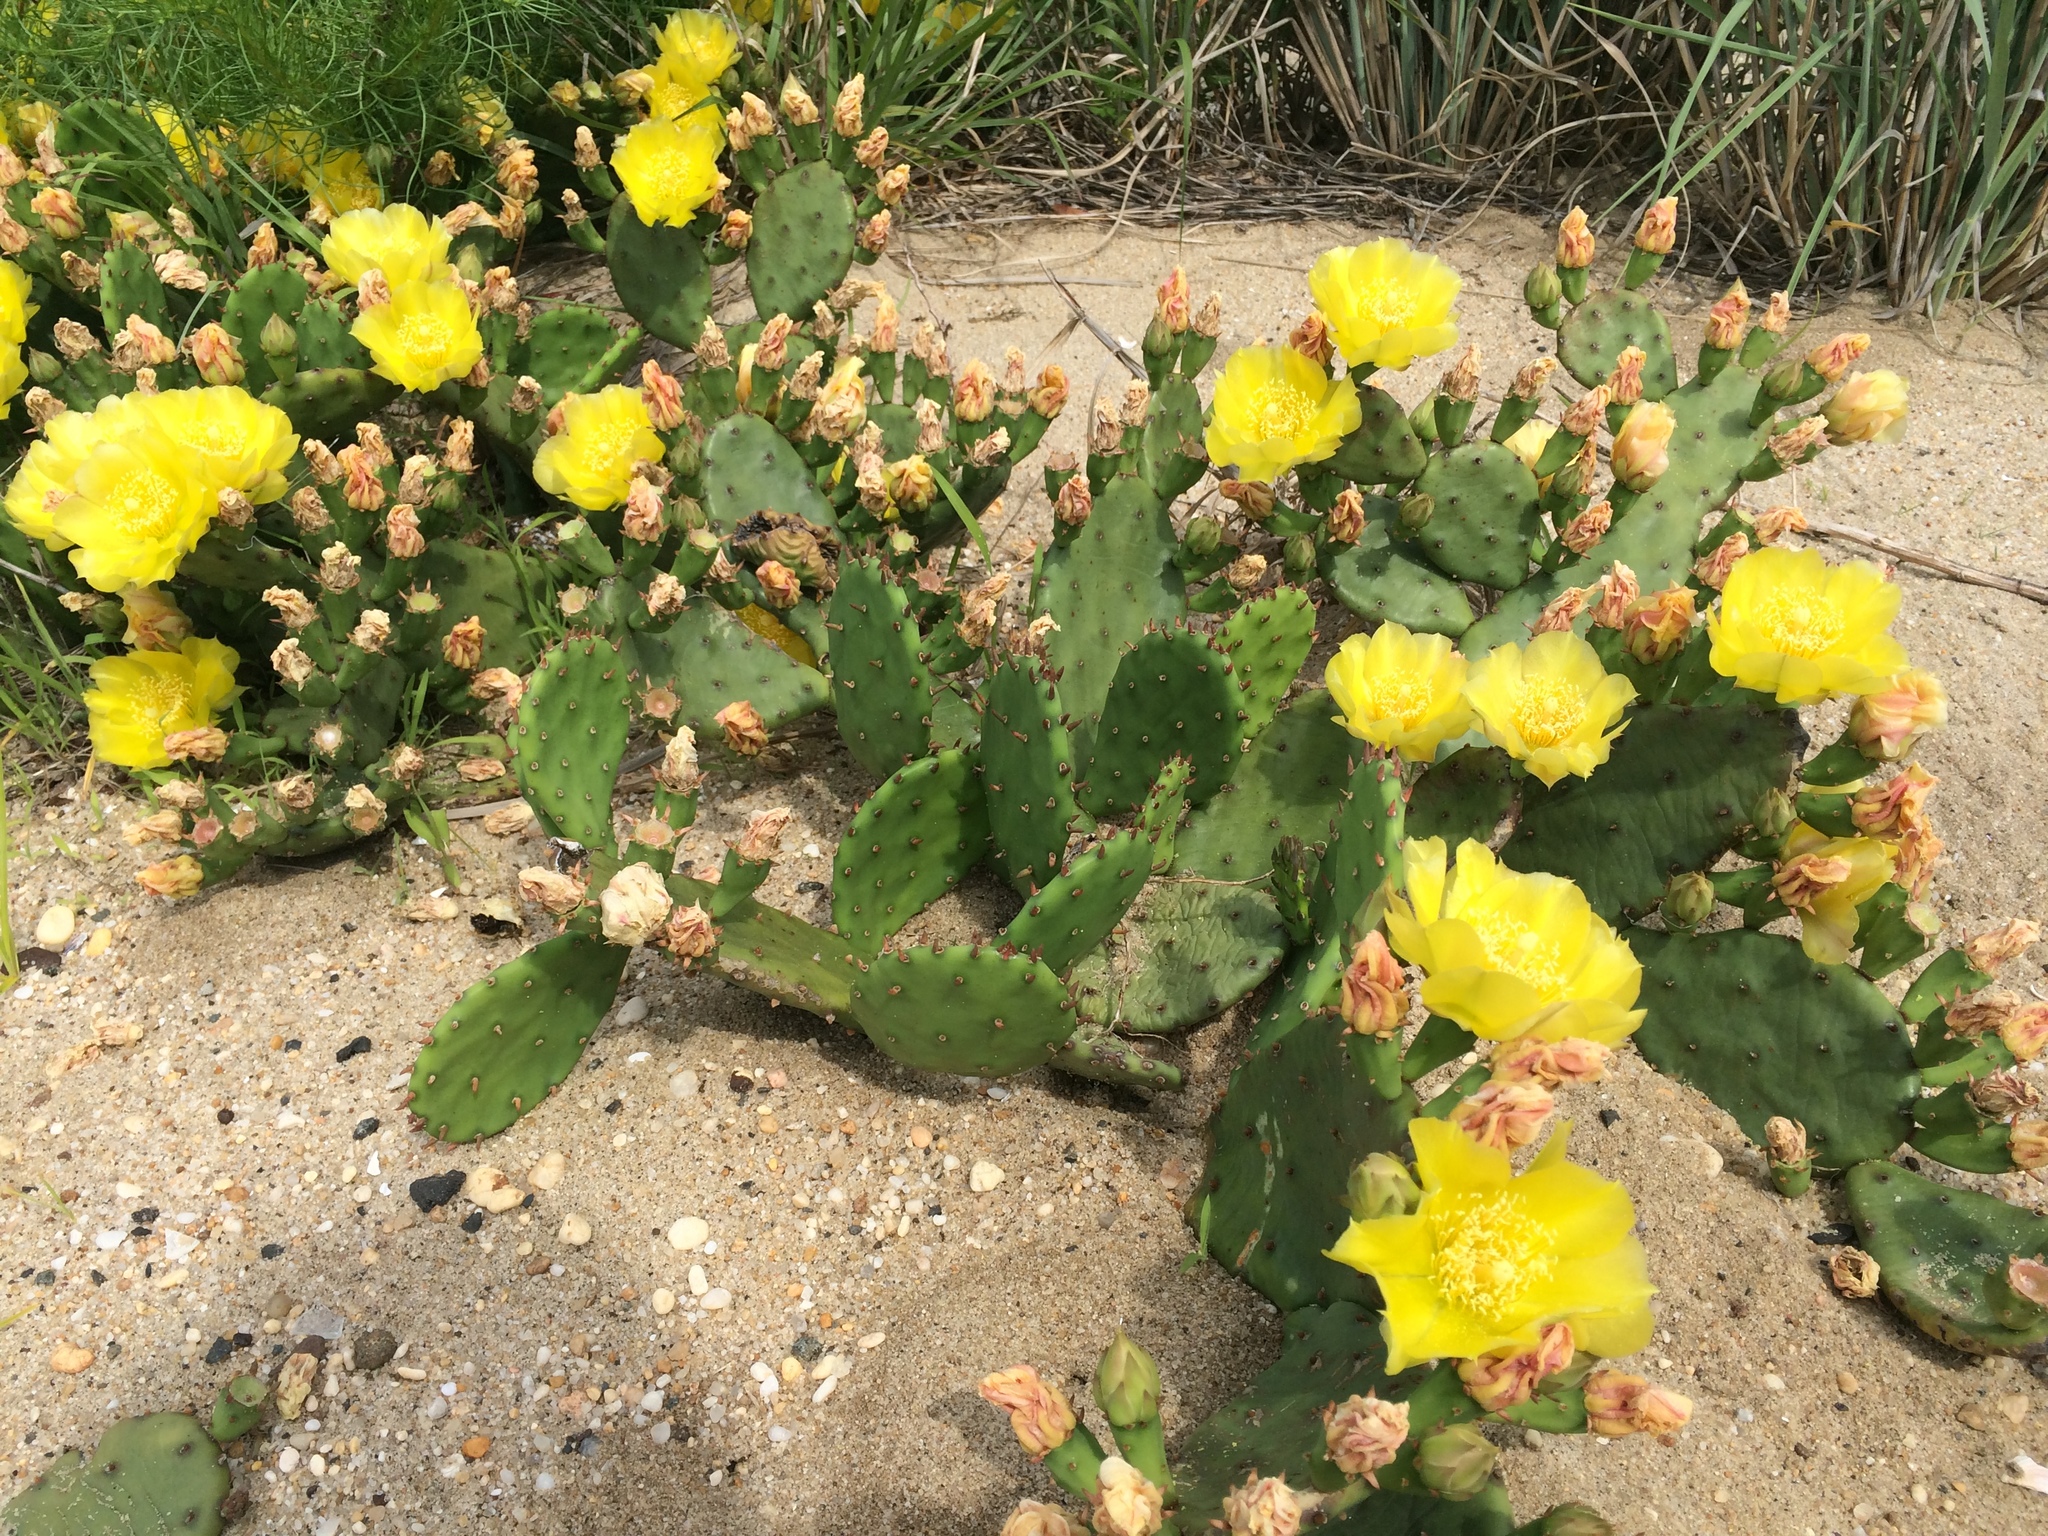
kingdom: Plantae
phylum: Tracheophyta
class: Magnoliopsida
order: Caryophyllales
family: Cactaceae
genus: Opuntia
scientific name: Opuntia humifusa
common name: Eastern prickly-pear
